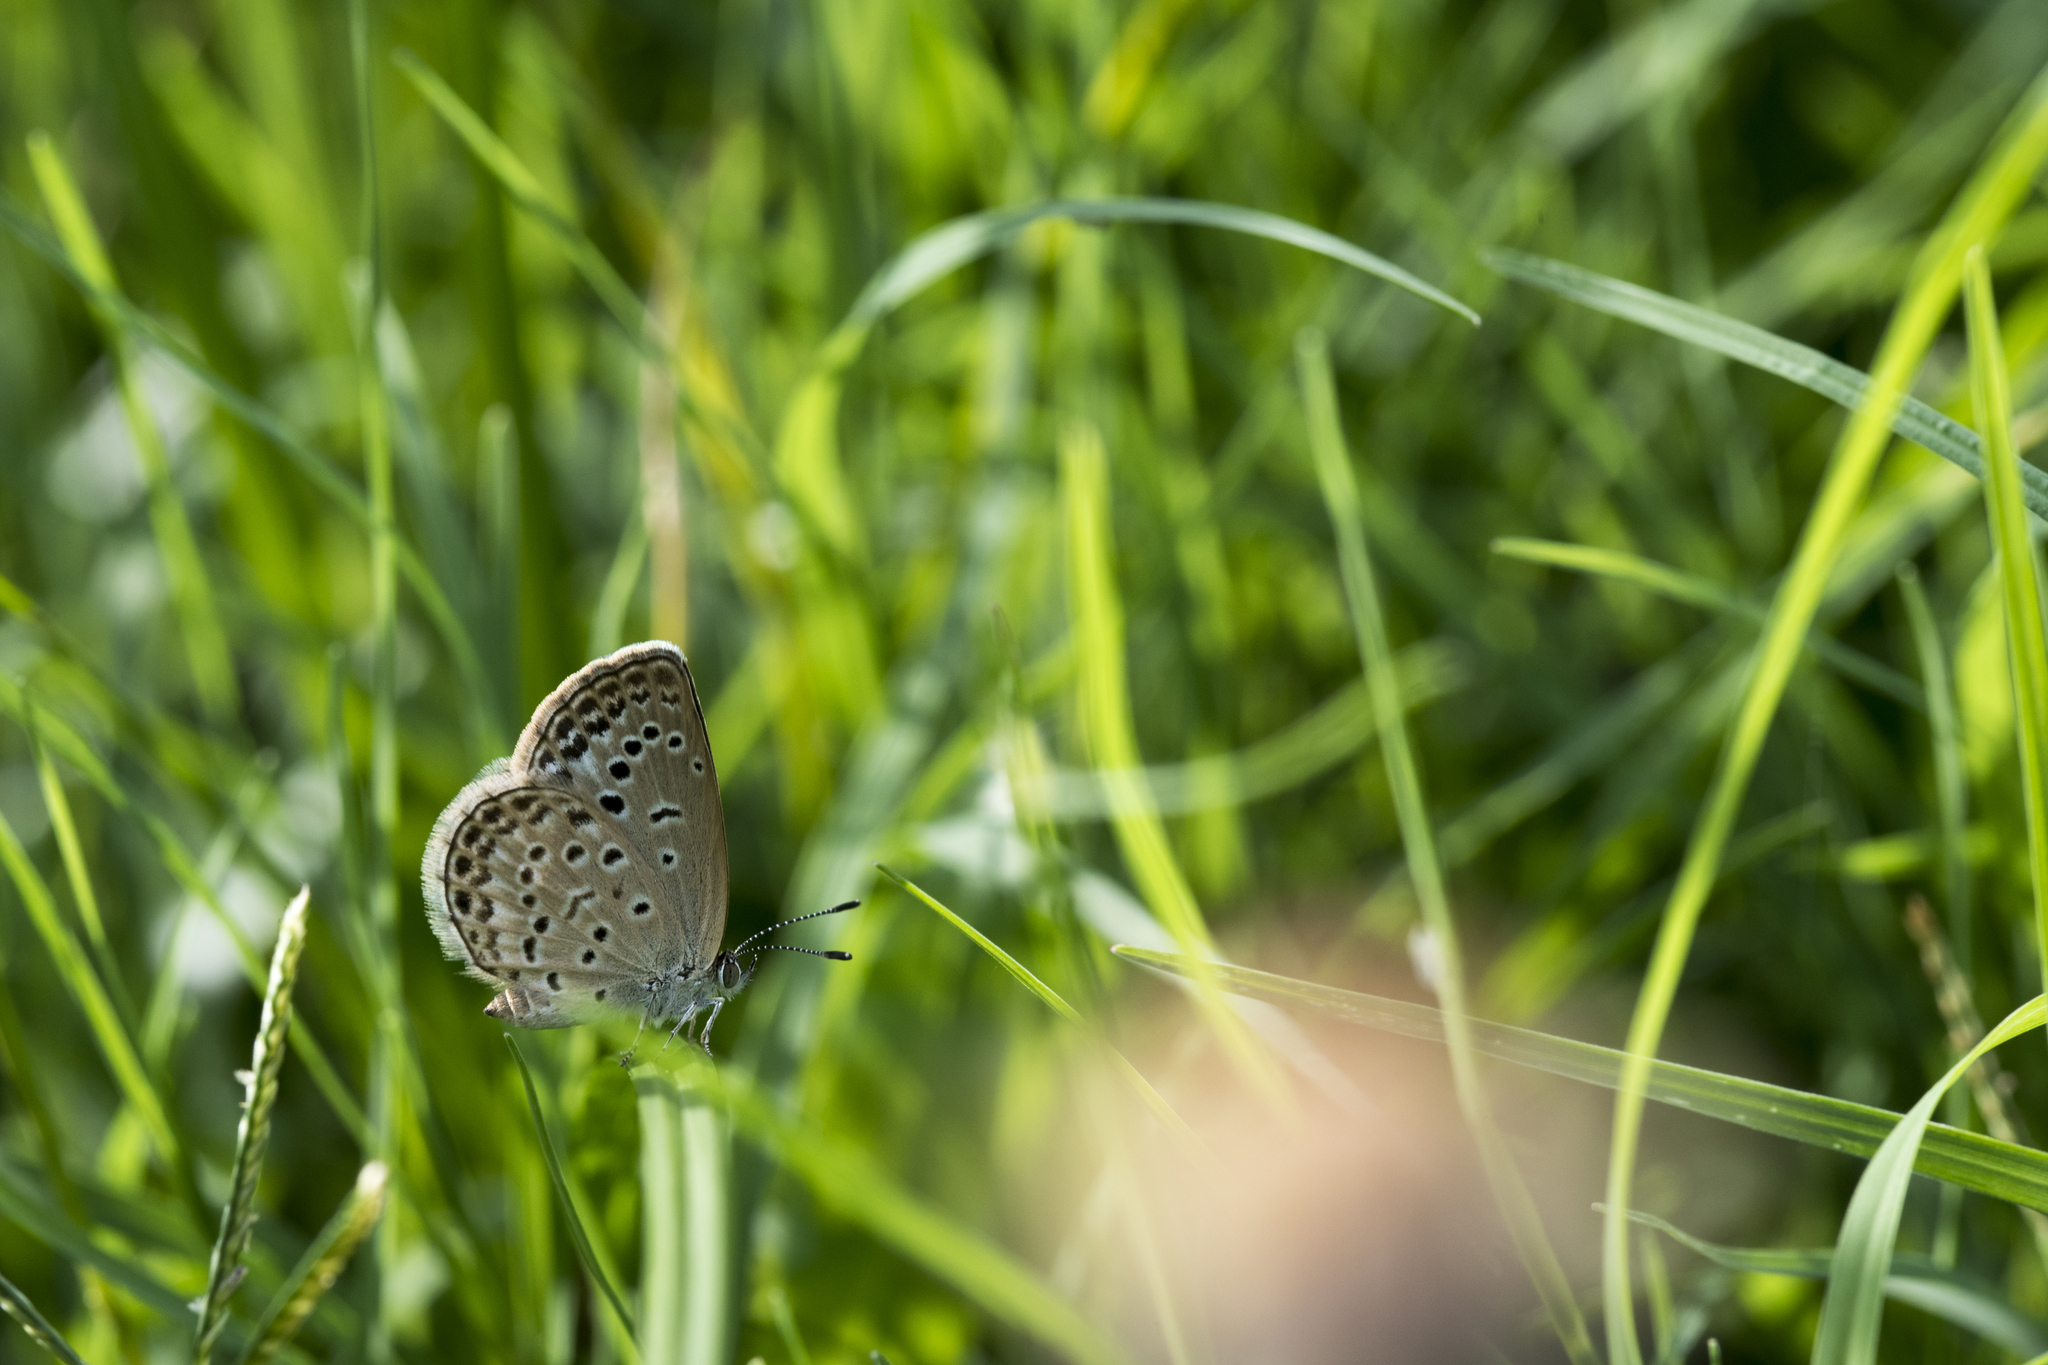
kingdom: Animalia
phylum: Arthropoda
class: Insecta
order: Lepidoptera
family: Lycaenidae
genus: Pseudozizeeria
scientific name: Pseudozizeeria maha
